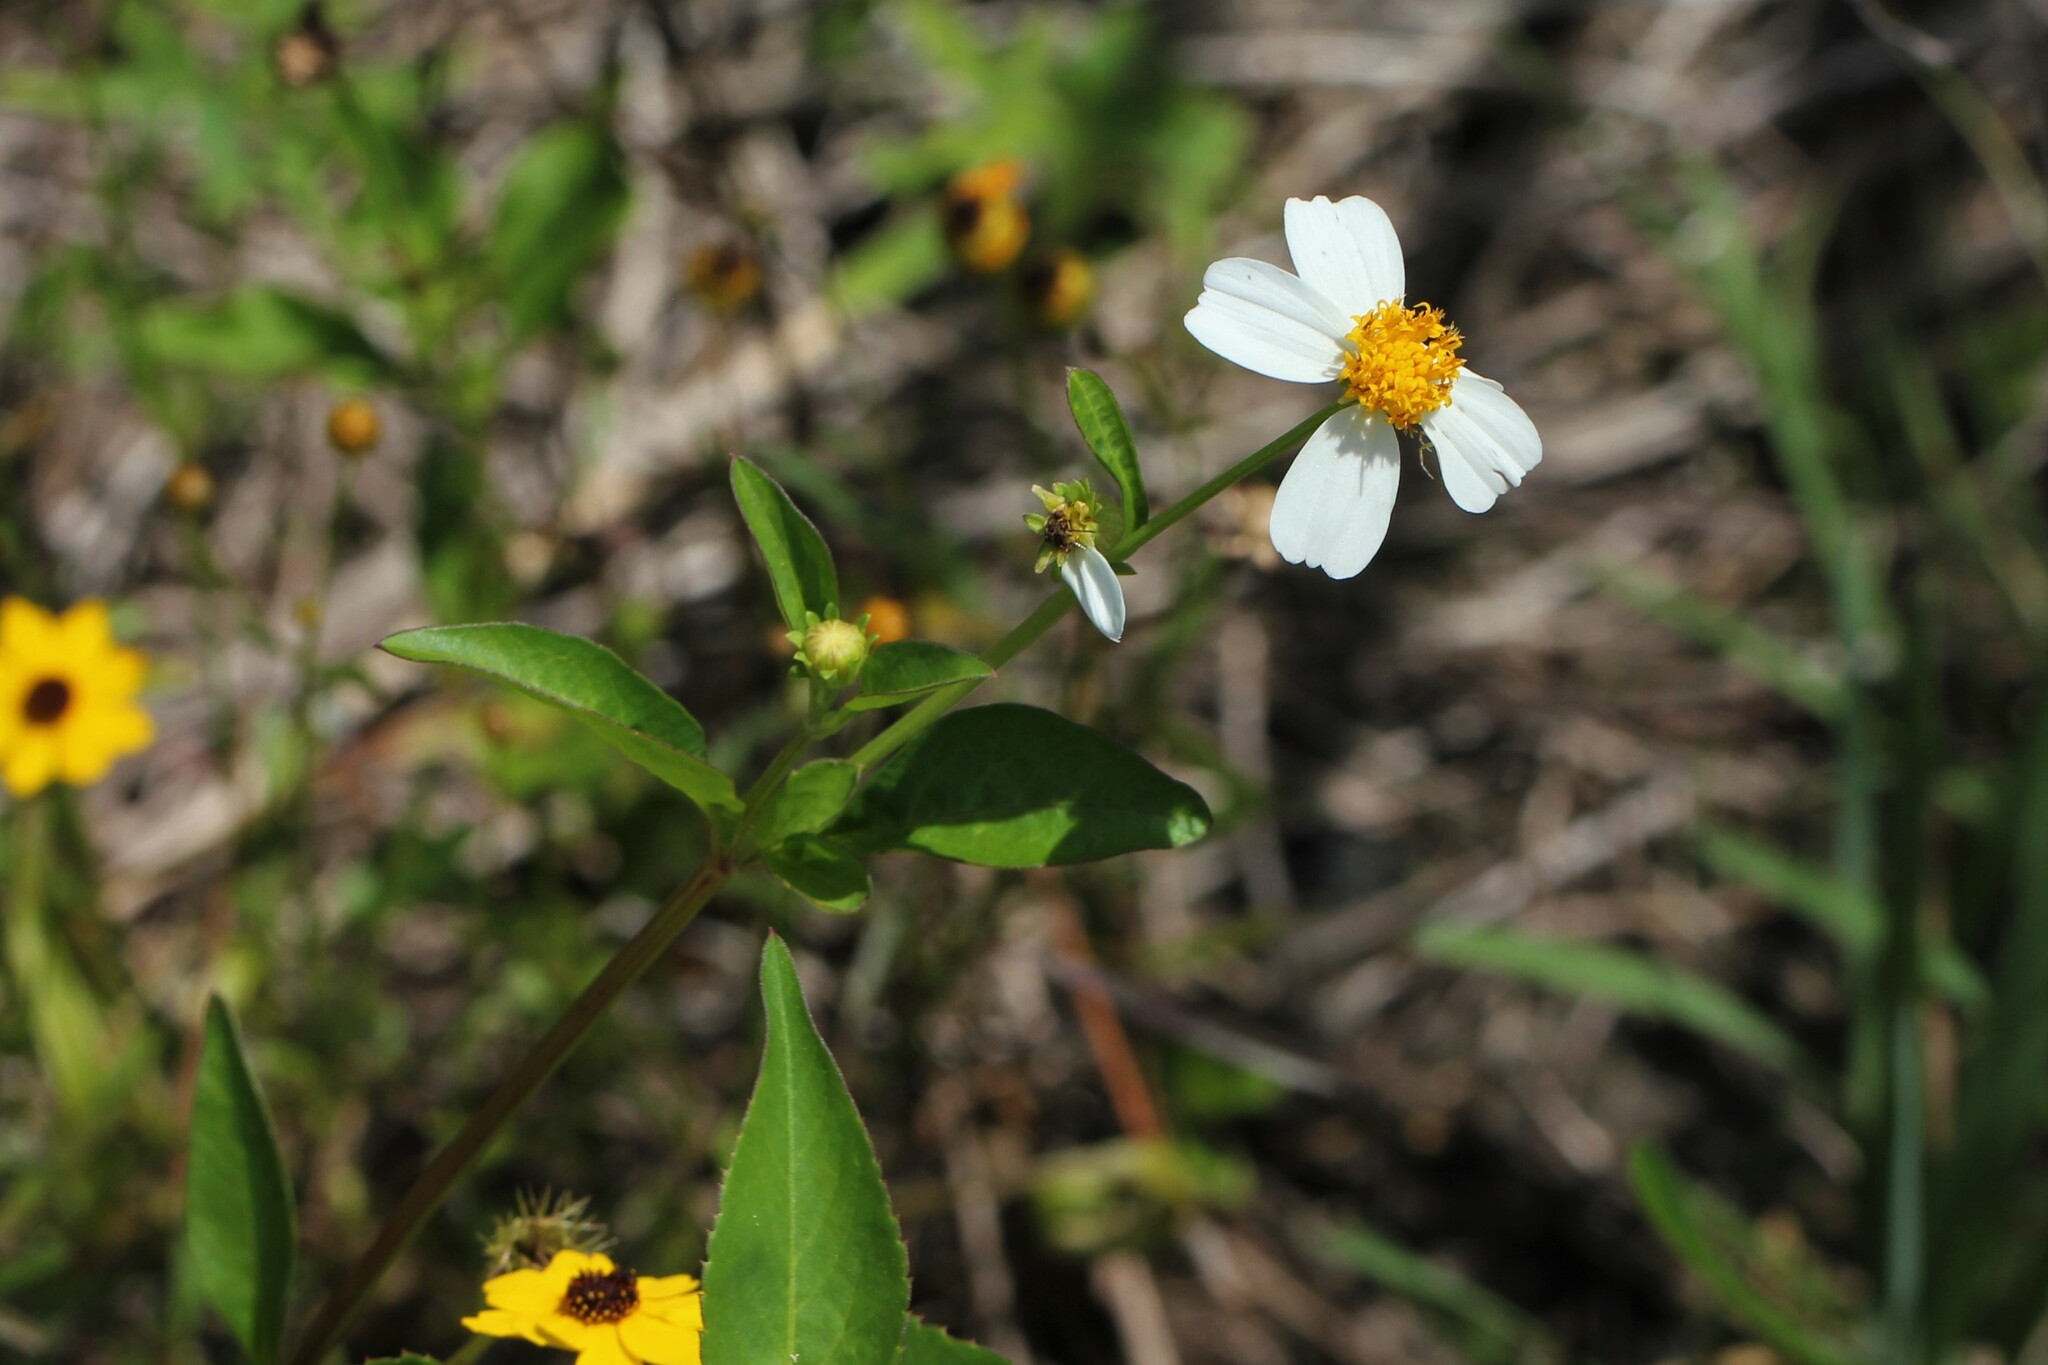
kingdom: Plantae
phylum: Tracheophyta
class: Magnoliopsida
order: Asterales
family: Asteraceae
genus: Bidens
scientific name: Bidens alba
